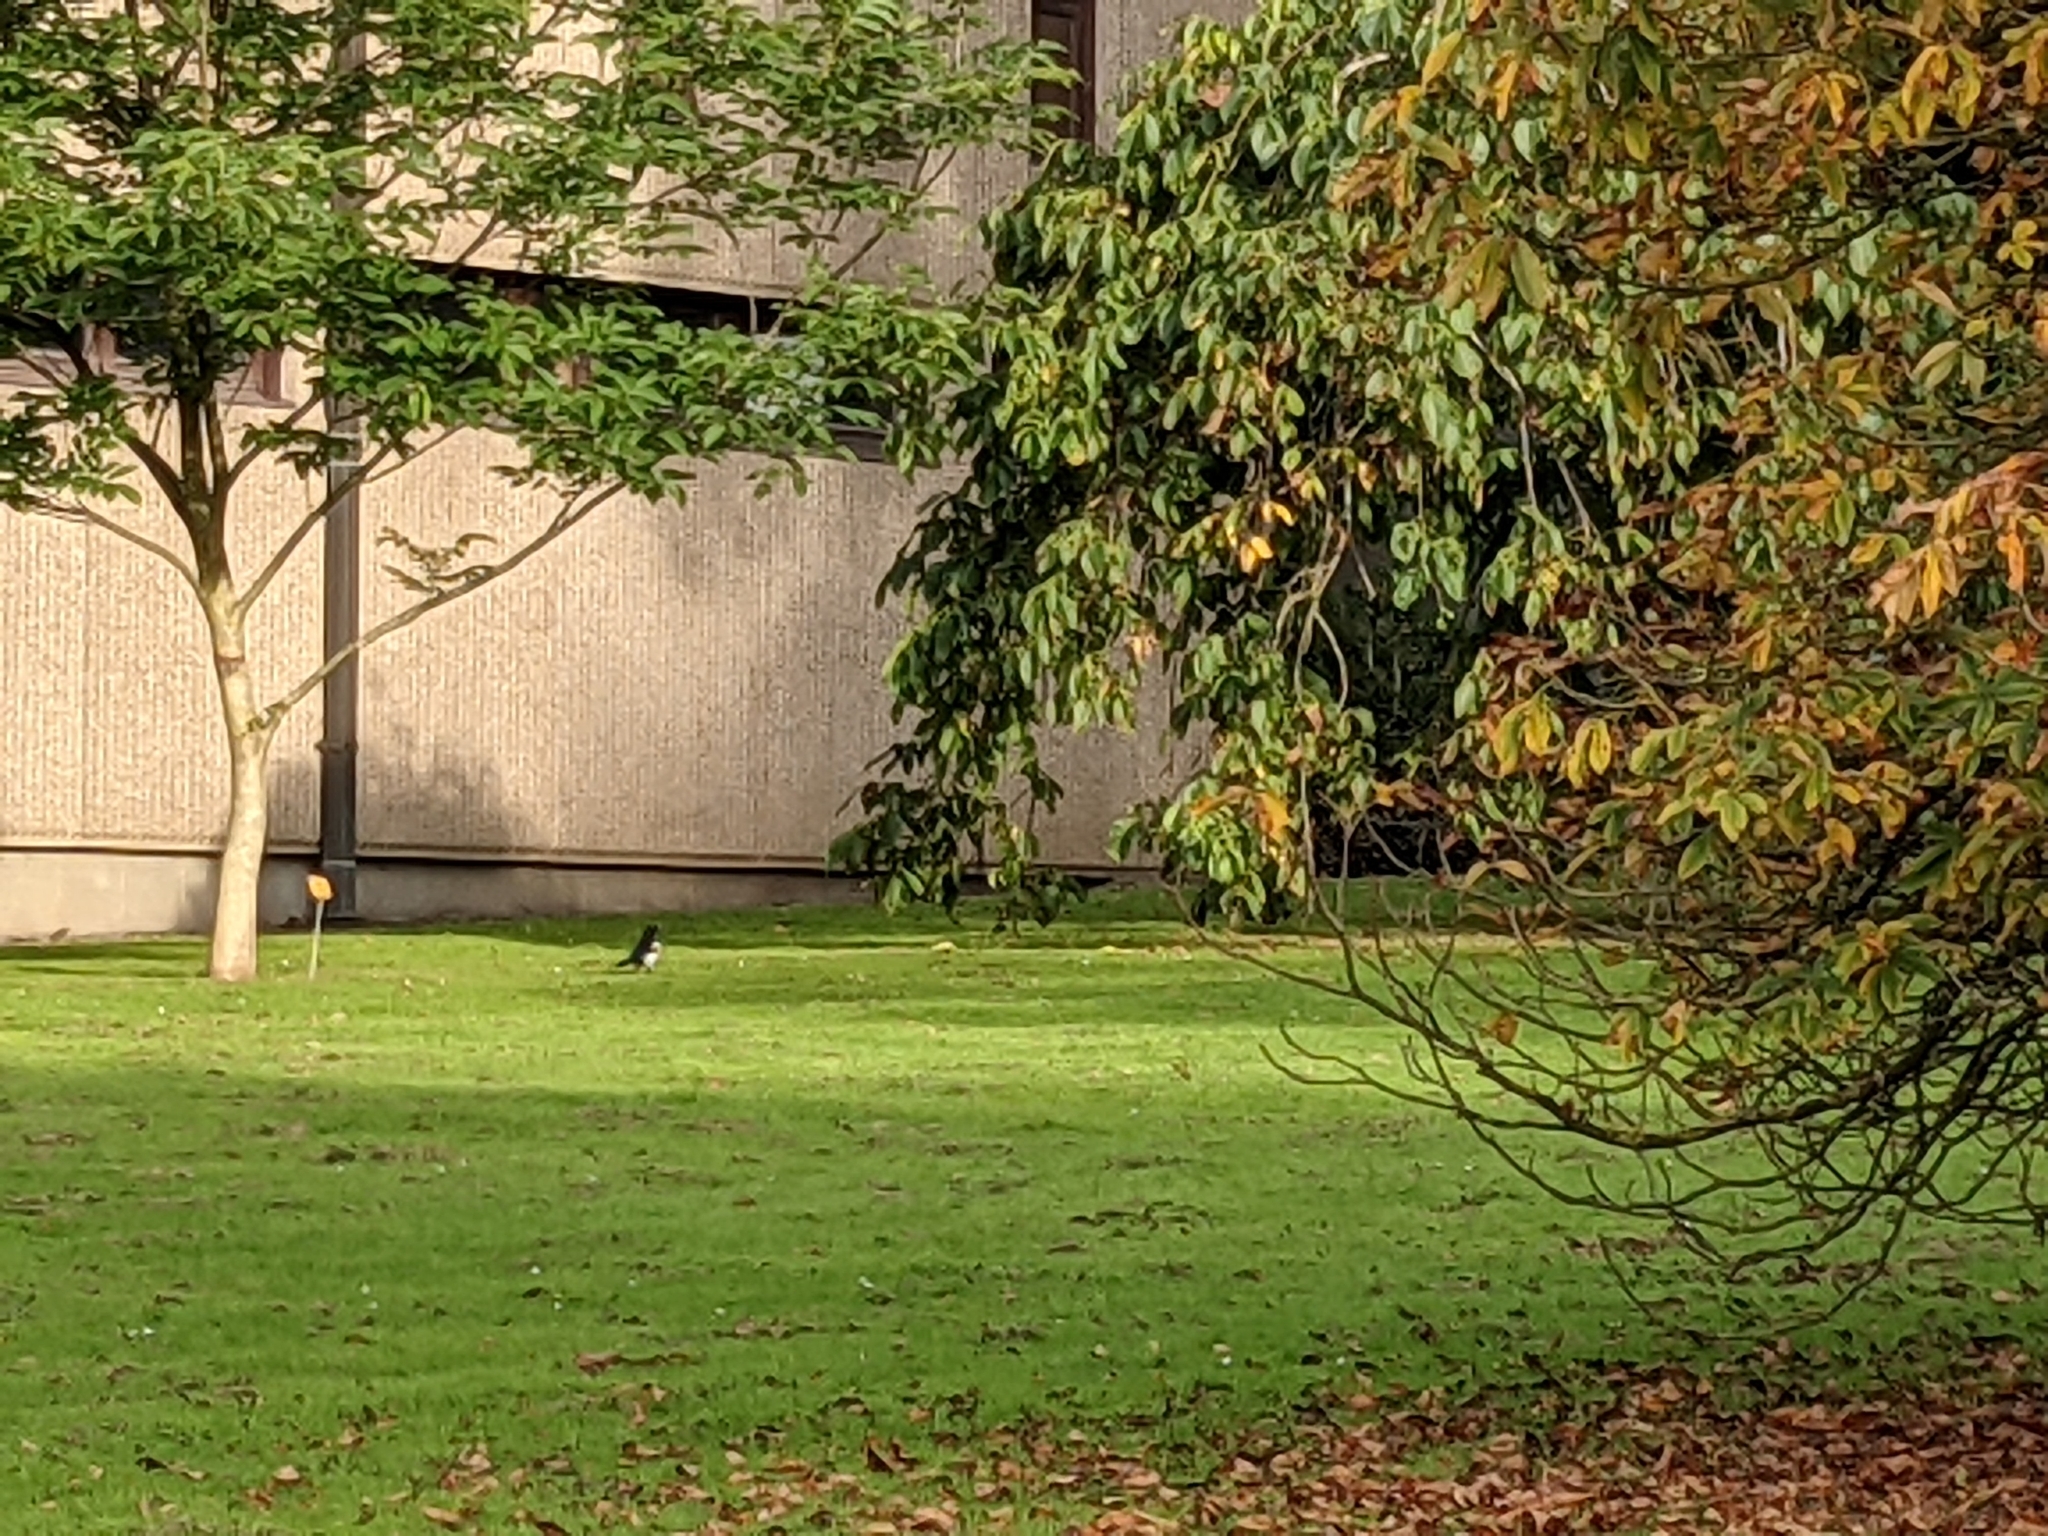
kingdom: Animalia
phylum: Chordata
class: Aves
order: Passeriformes
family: Corvidae
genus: Pica
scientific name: Pica pica
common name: Eurasian magpie
